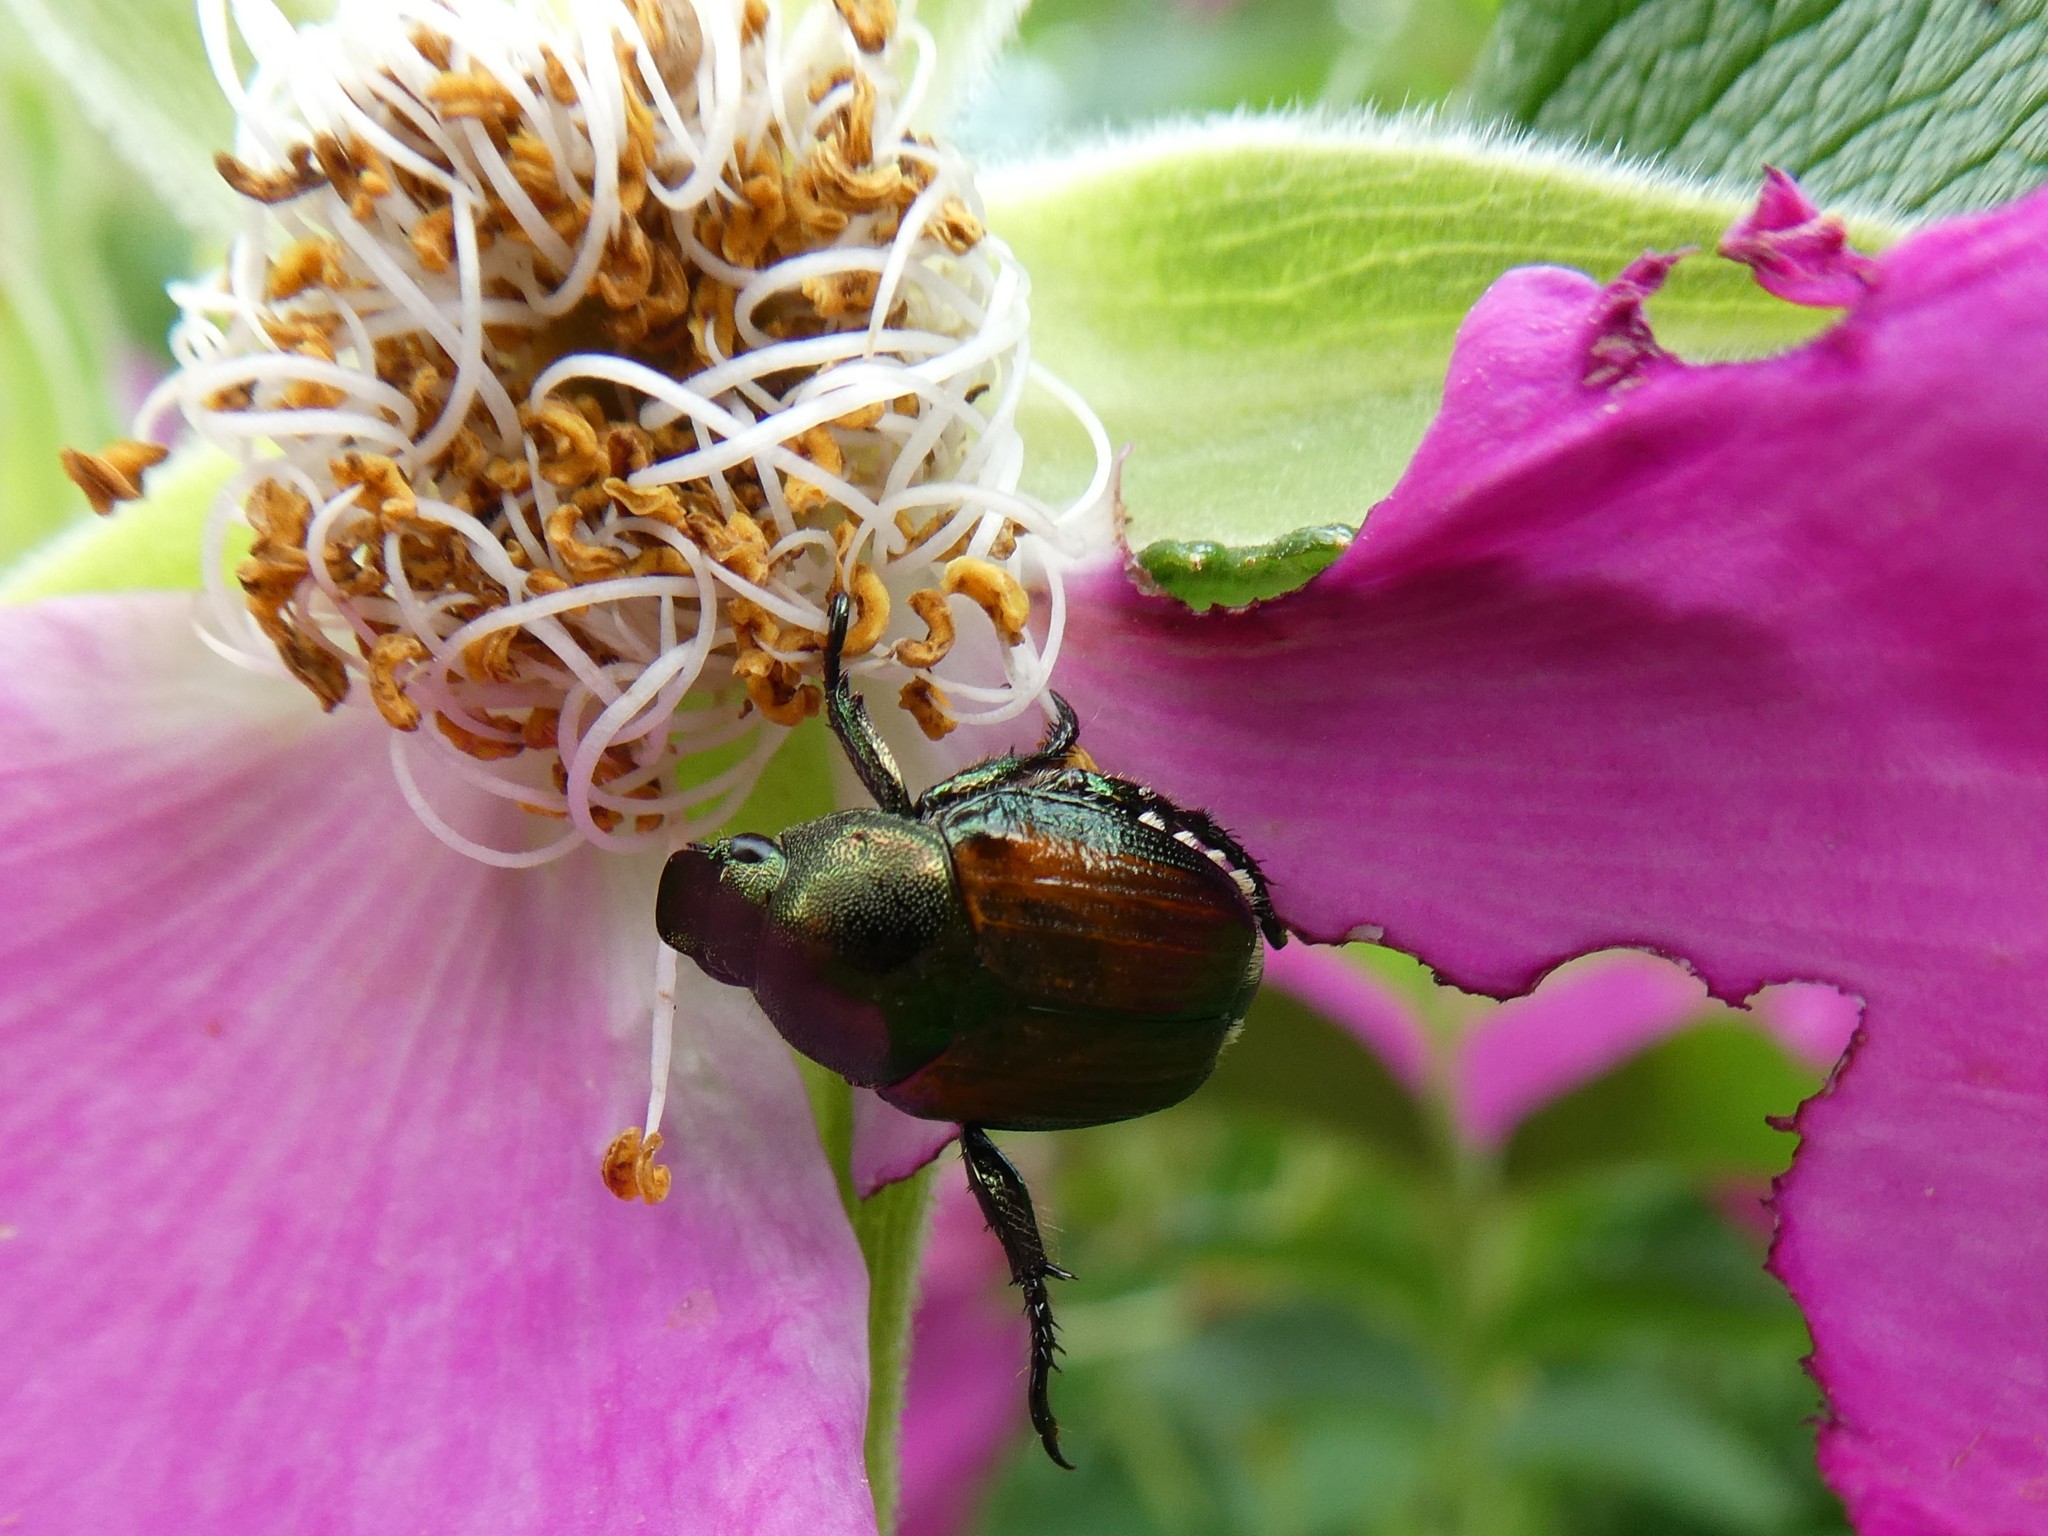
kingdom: Animalia
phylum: Arthropoda
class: Insecta
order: Coleoptera
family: Scarabaeidae
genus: Popillia
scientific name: Popillia japonica
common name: Japanese beetle
